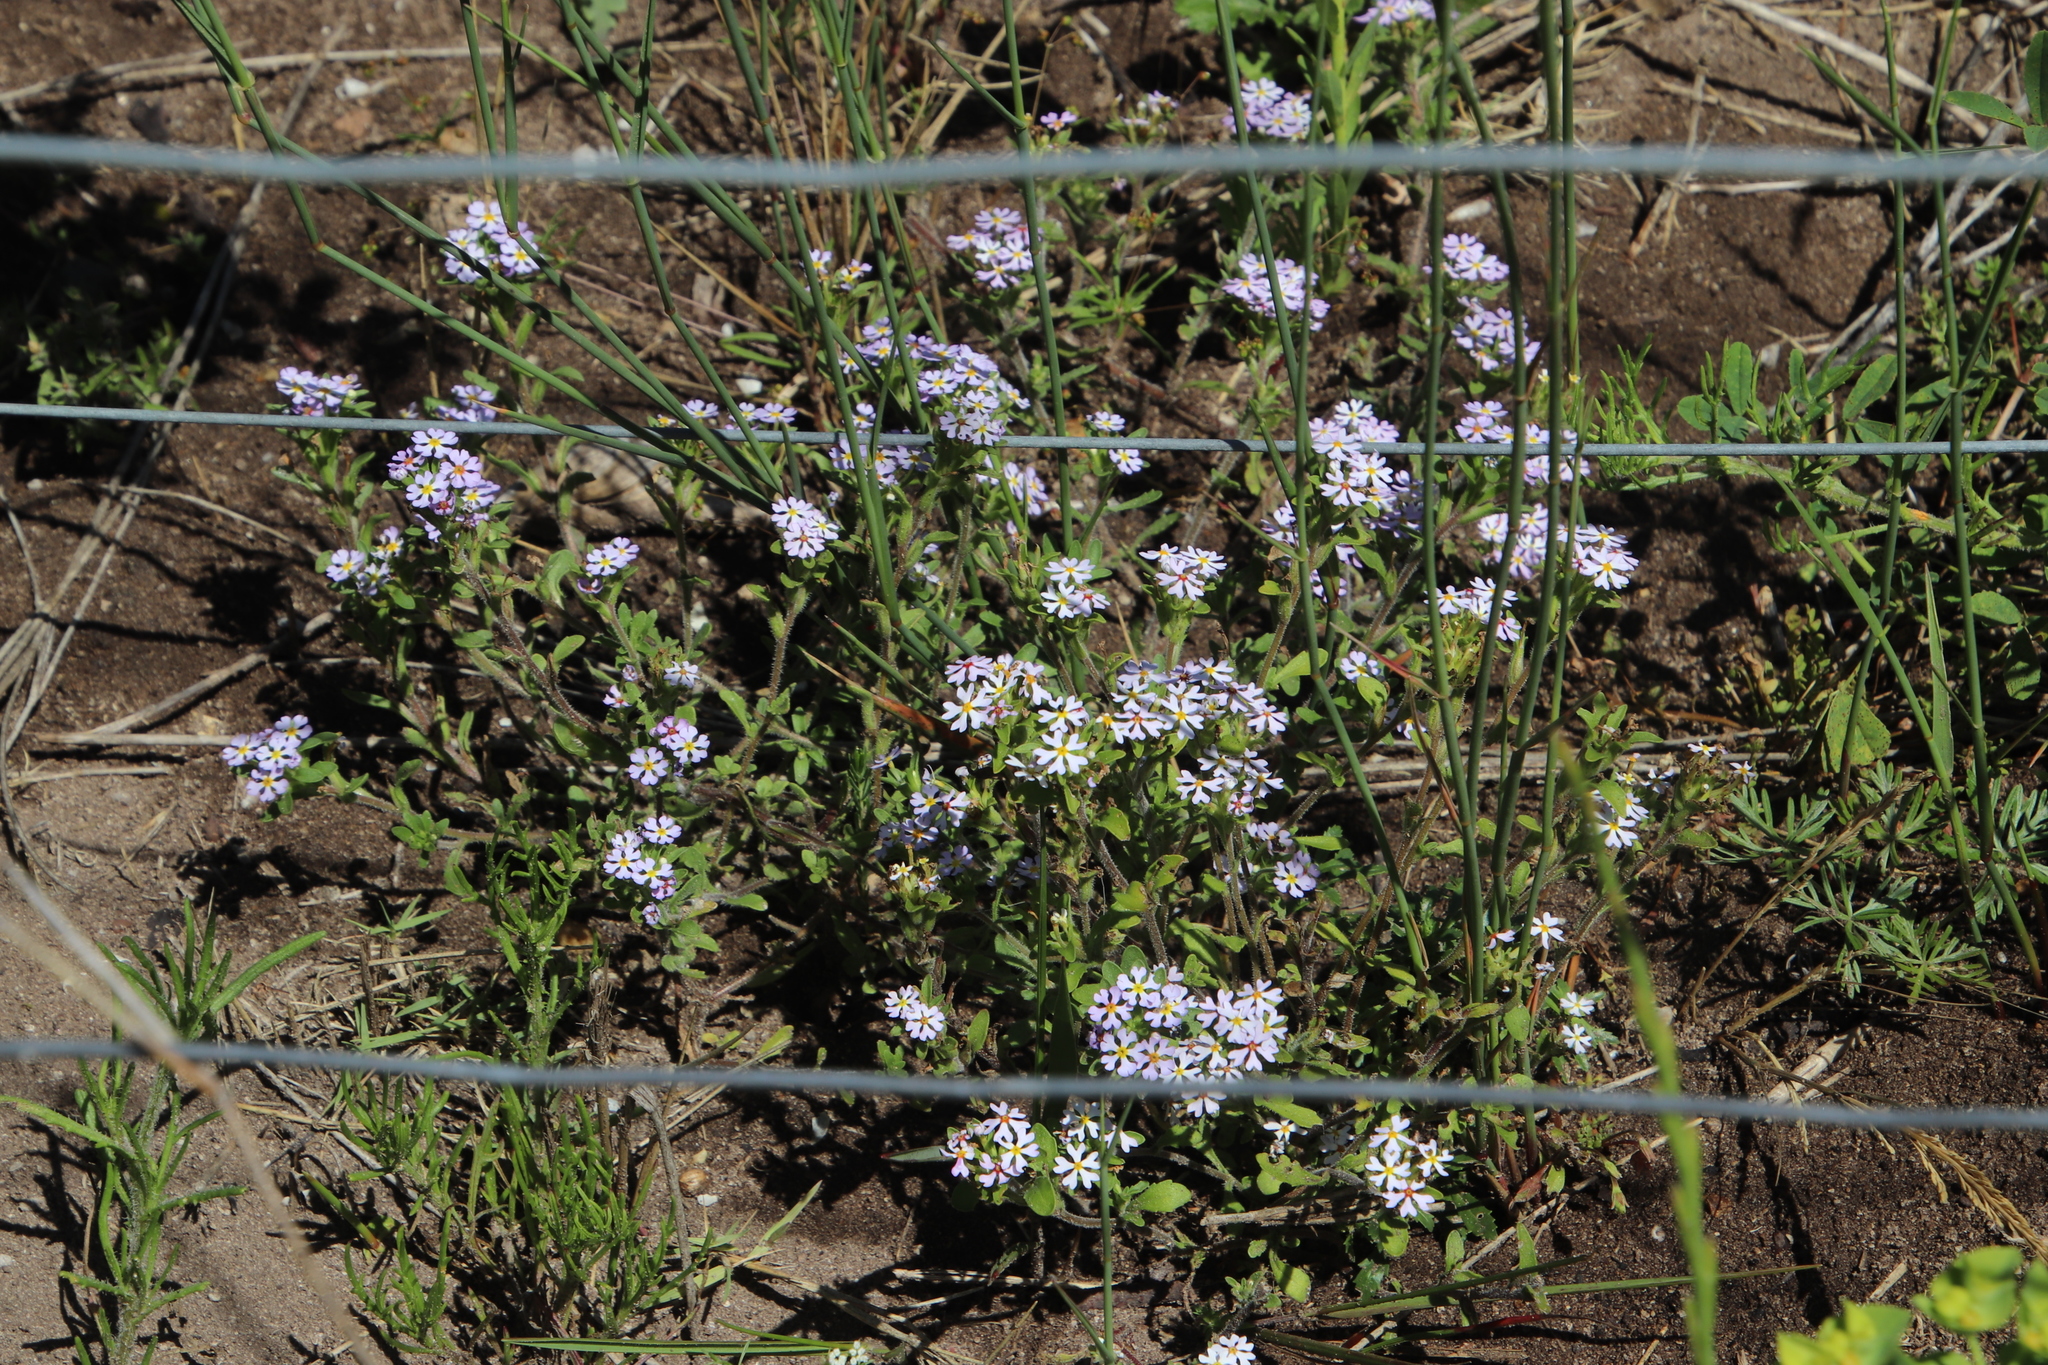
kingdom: Plantae
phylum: Tracheophyta
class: Magnoliopsida
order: Lamiales
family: Scrophulariaceae
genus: Zaluzianskya
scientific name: Zaluzianskya villosa
